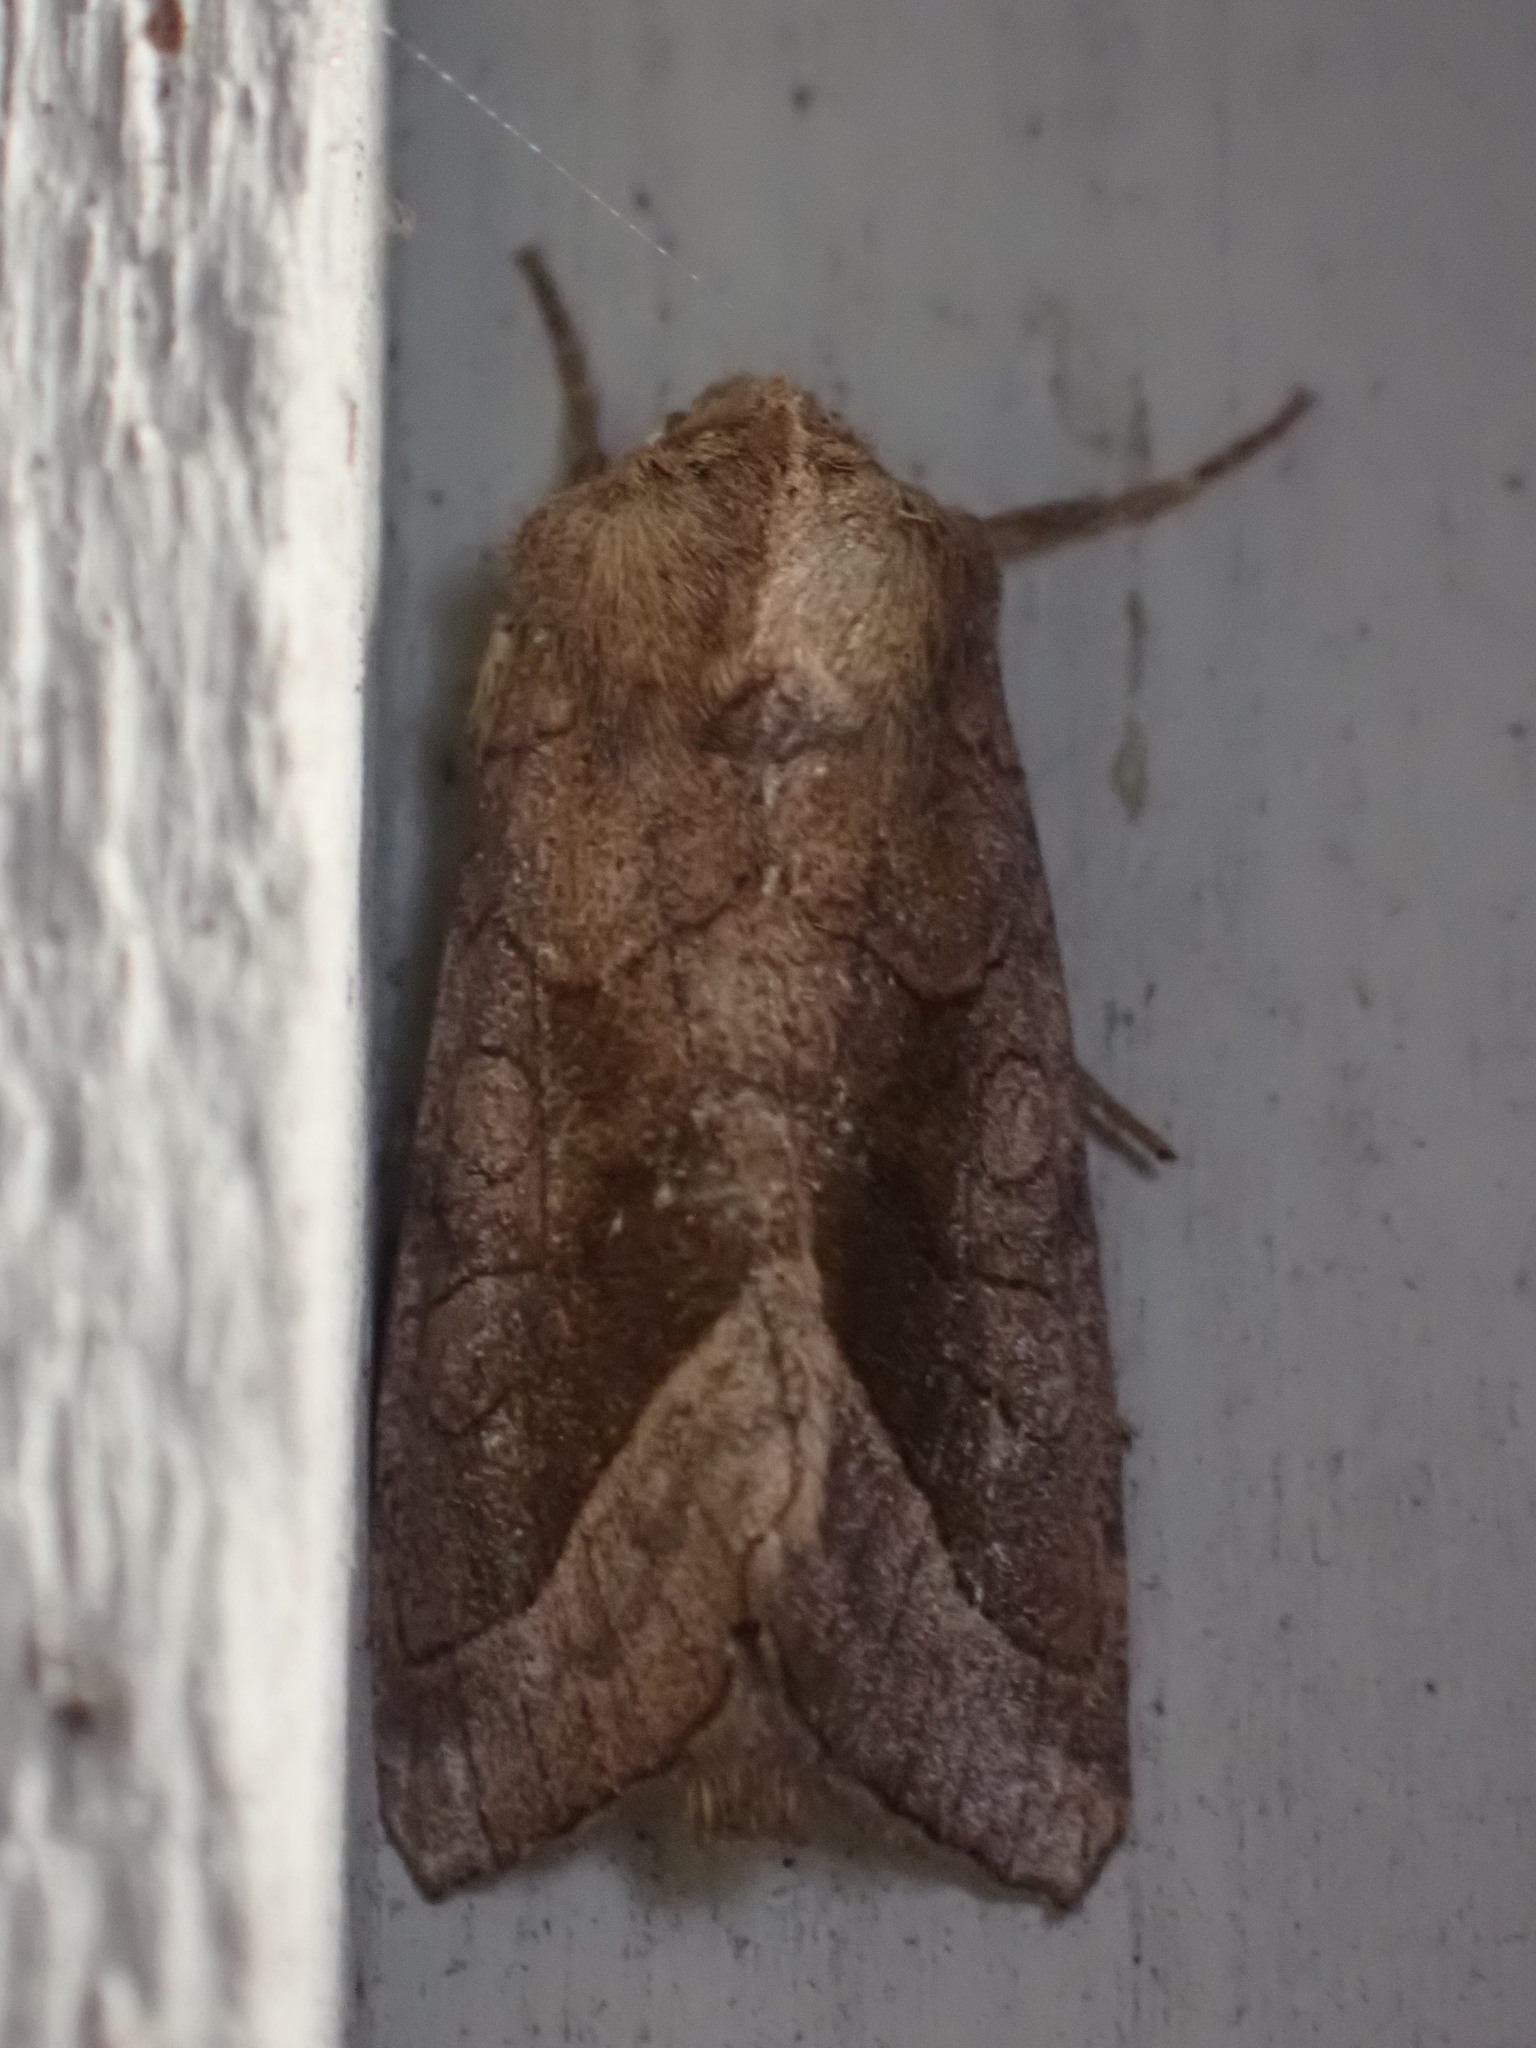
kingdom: Animalia
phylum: Arthropoda
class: Insecta
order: Lepidoptera
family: Noctuidae
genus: Hydraecia
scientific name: Hydraecia micacea
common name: Rosy rustic
